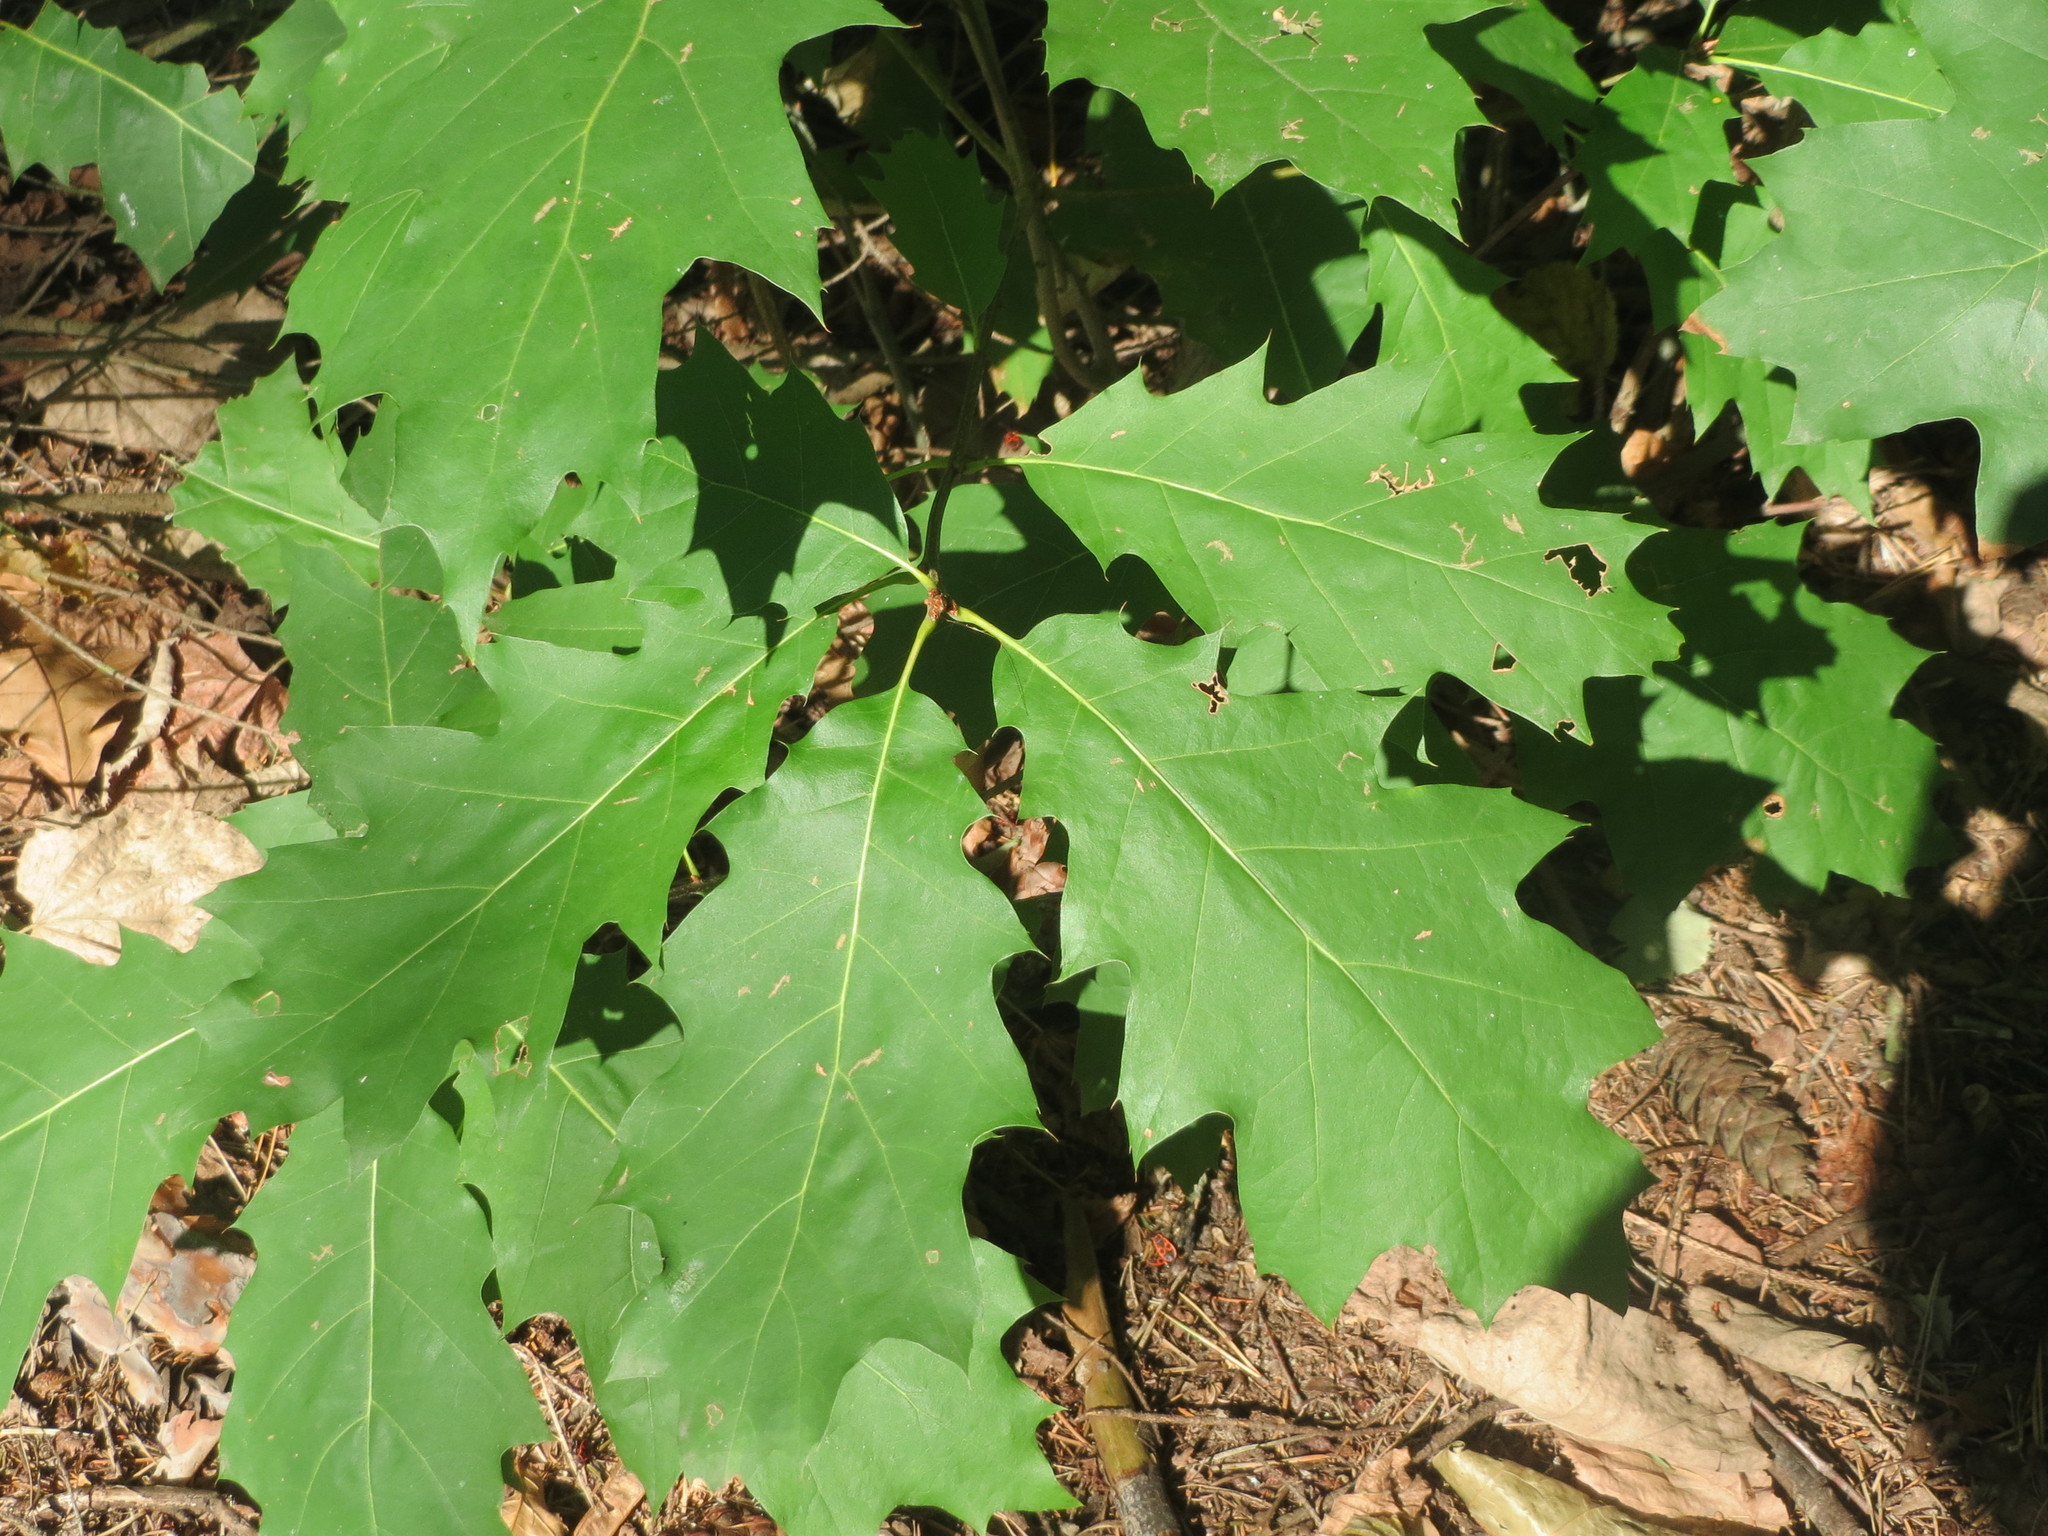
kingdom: Plantae
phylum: Tracheophyta
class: Magnoliopsida
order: Fagales
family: Fagaceae
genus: Quercus
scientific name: Quercus rubra
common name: Red oak
